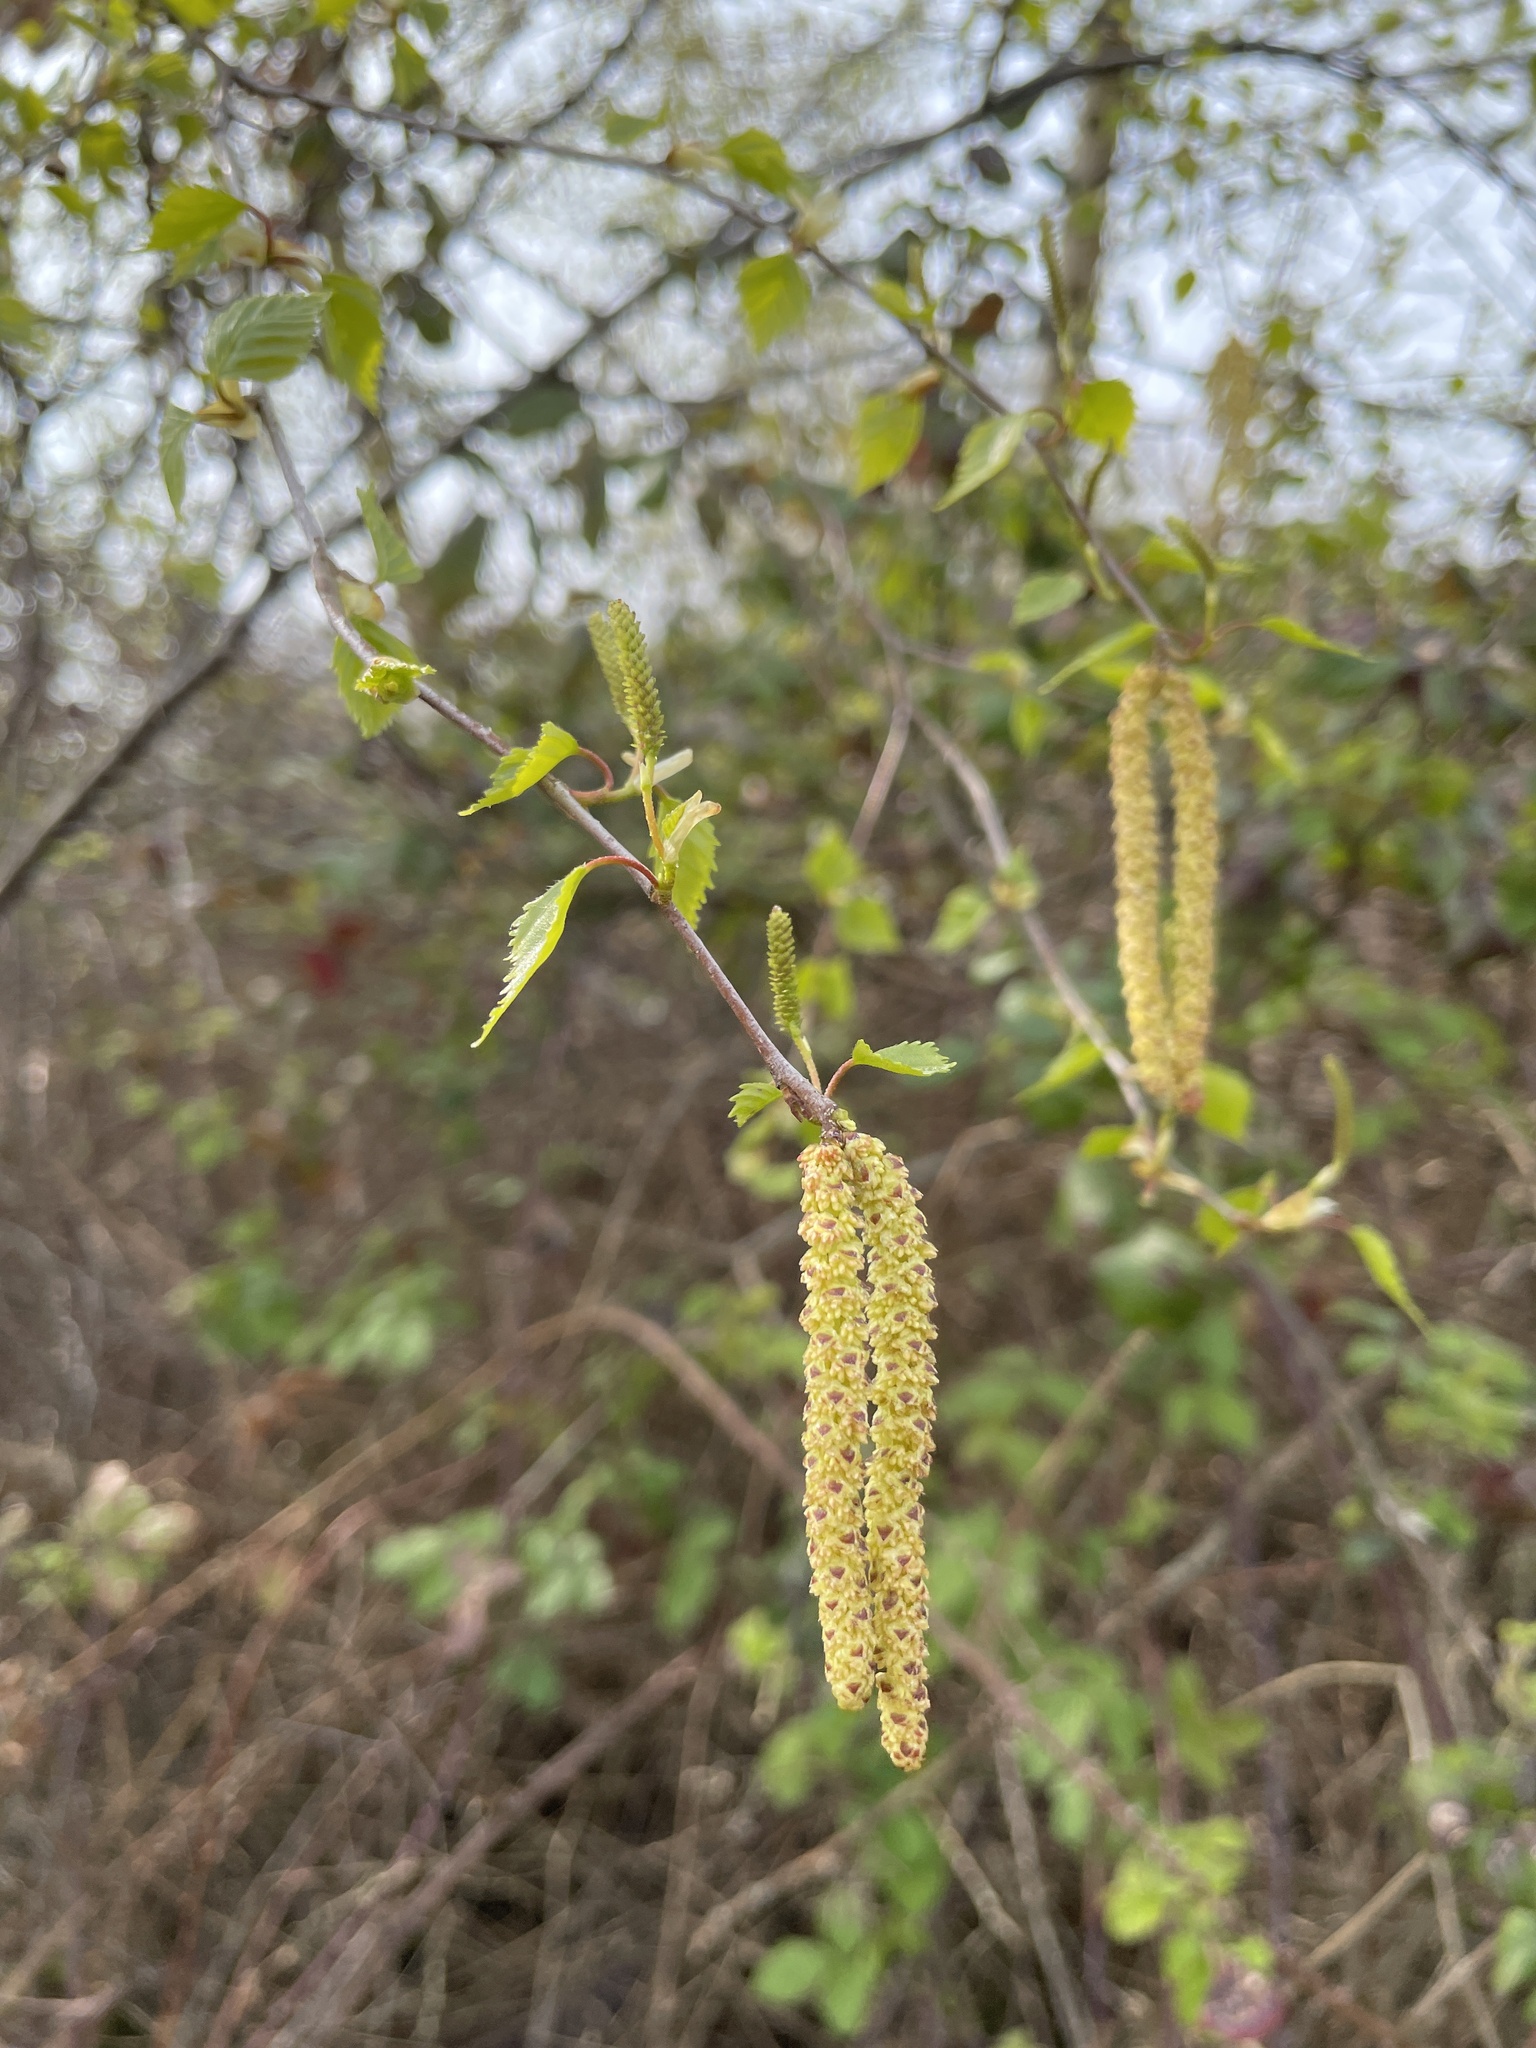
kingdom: Plantae
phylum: Tracheophyta
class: Magnoliopsida
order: Fagales
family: Betulaceae
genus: Betula
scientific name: Betula pendula
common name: Silver birch
